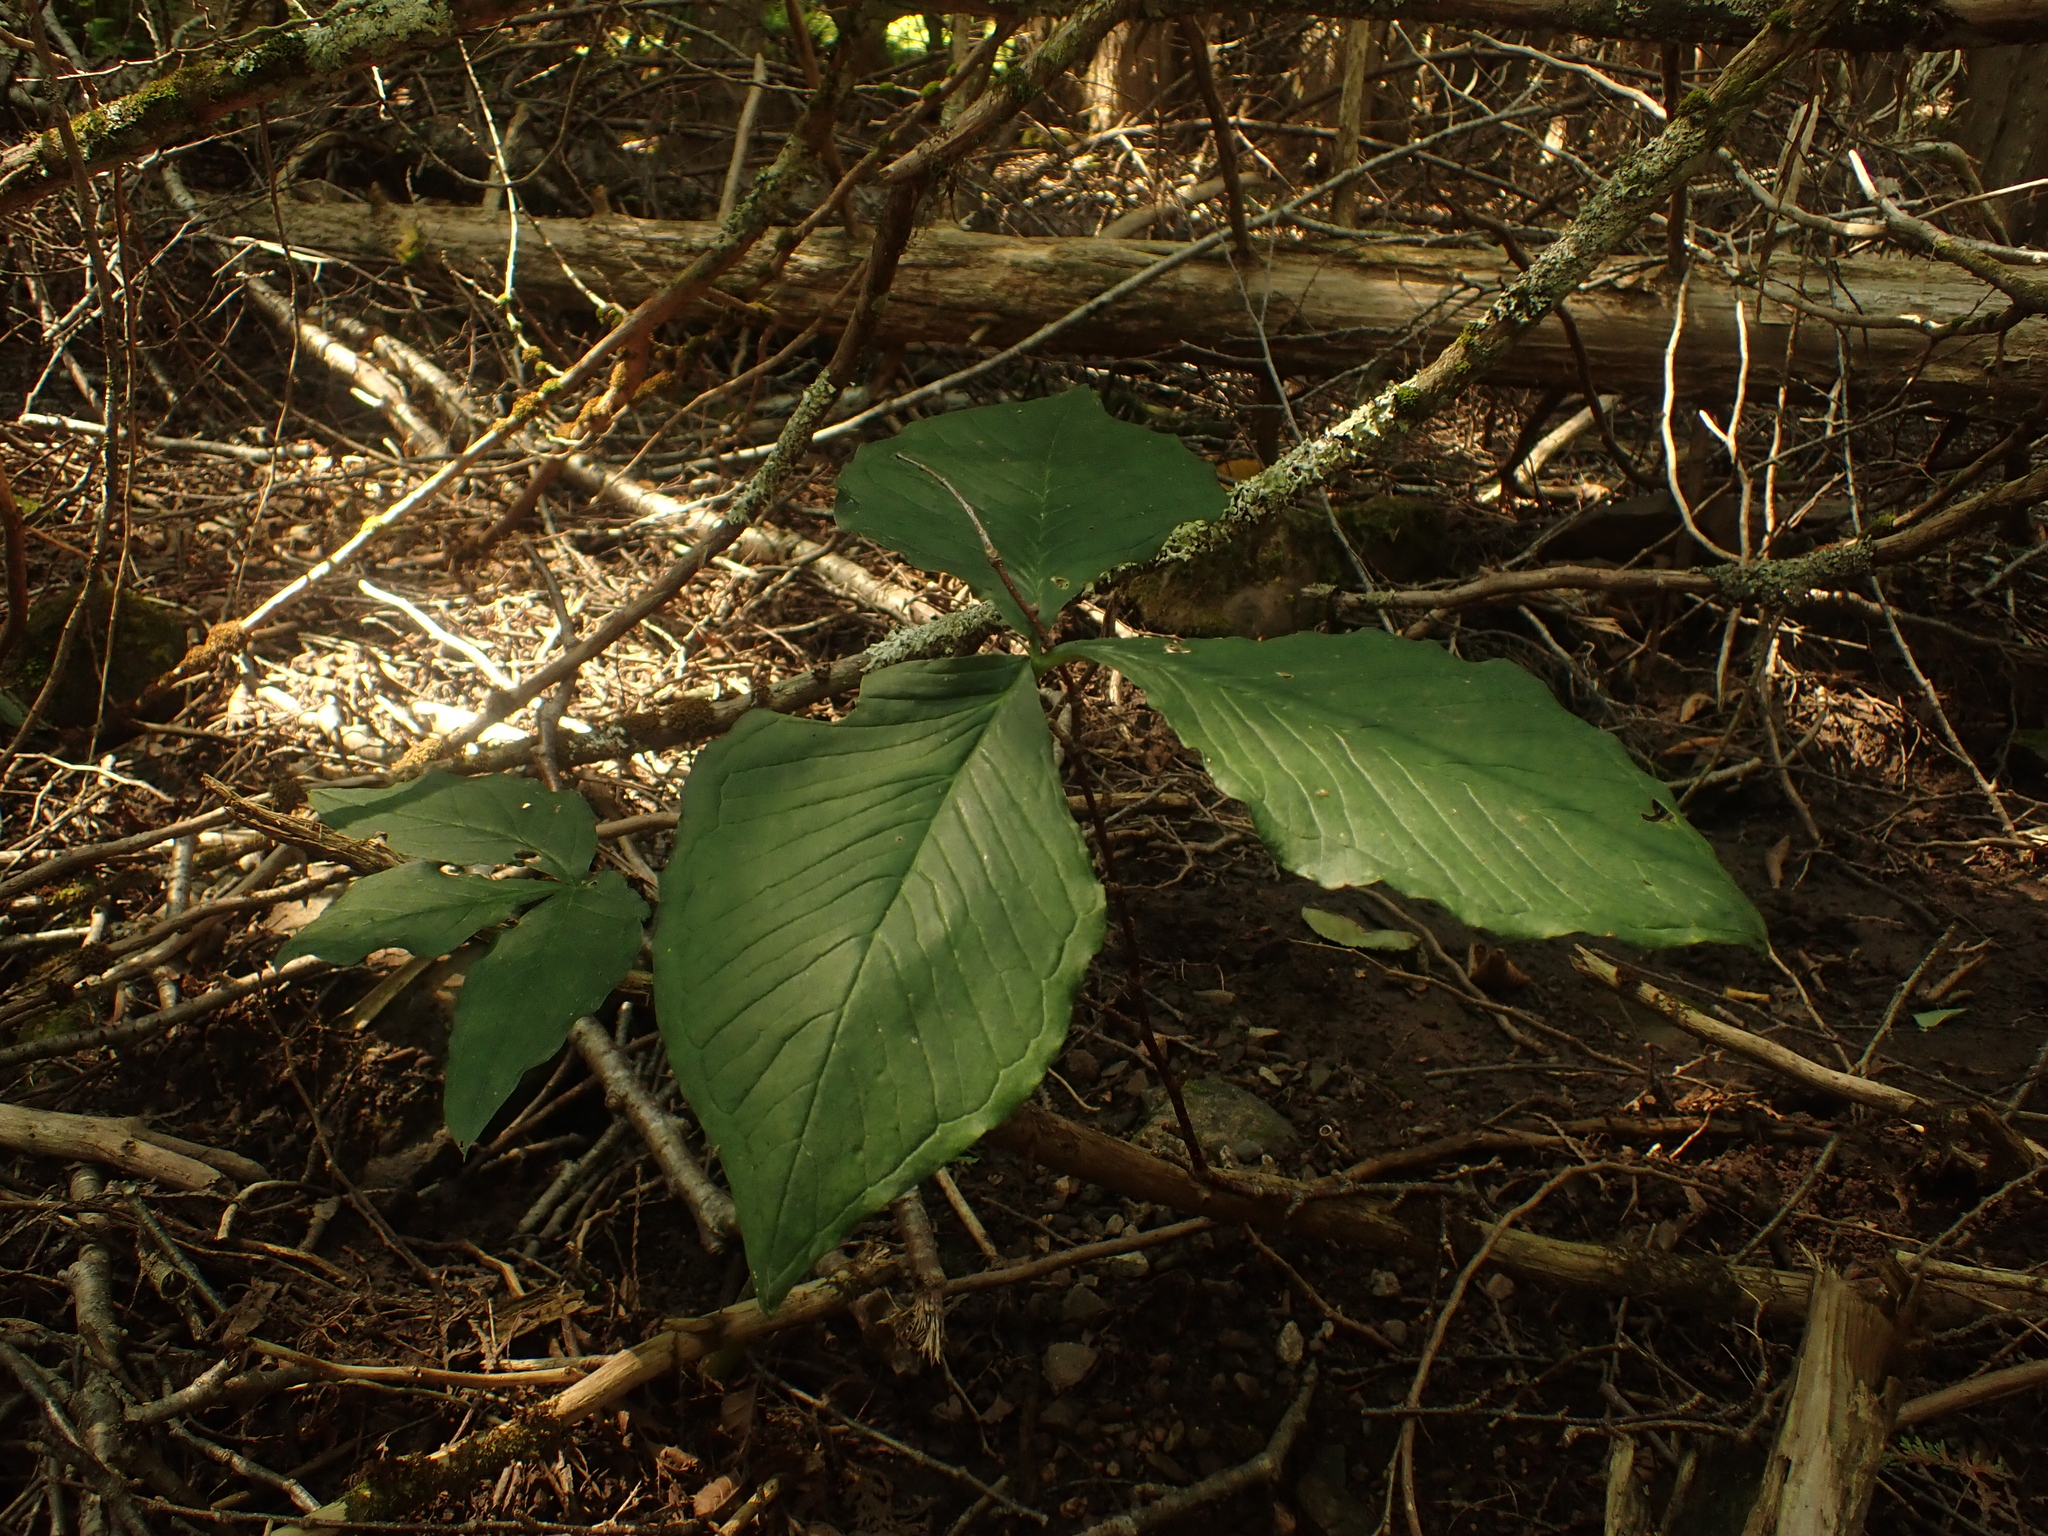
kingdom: Plantae
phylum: Tracheophyta
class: Liliopsida
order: Alismatales
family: Araceae
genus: Arisaema
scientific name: Arisaema triphyllum
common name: Jack-in-the-pulpit
